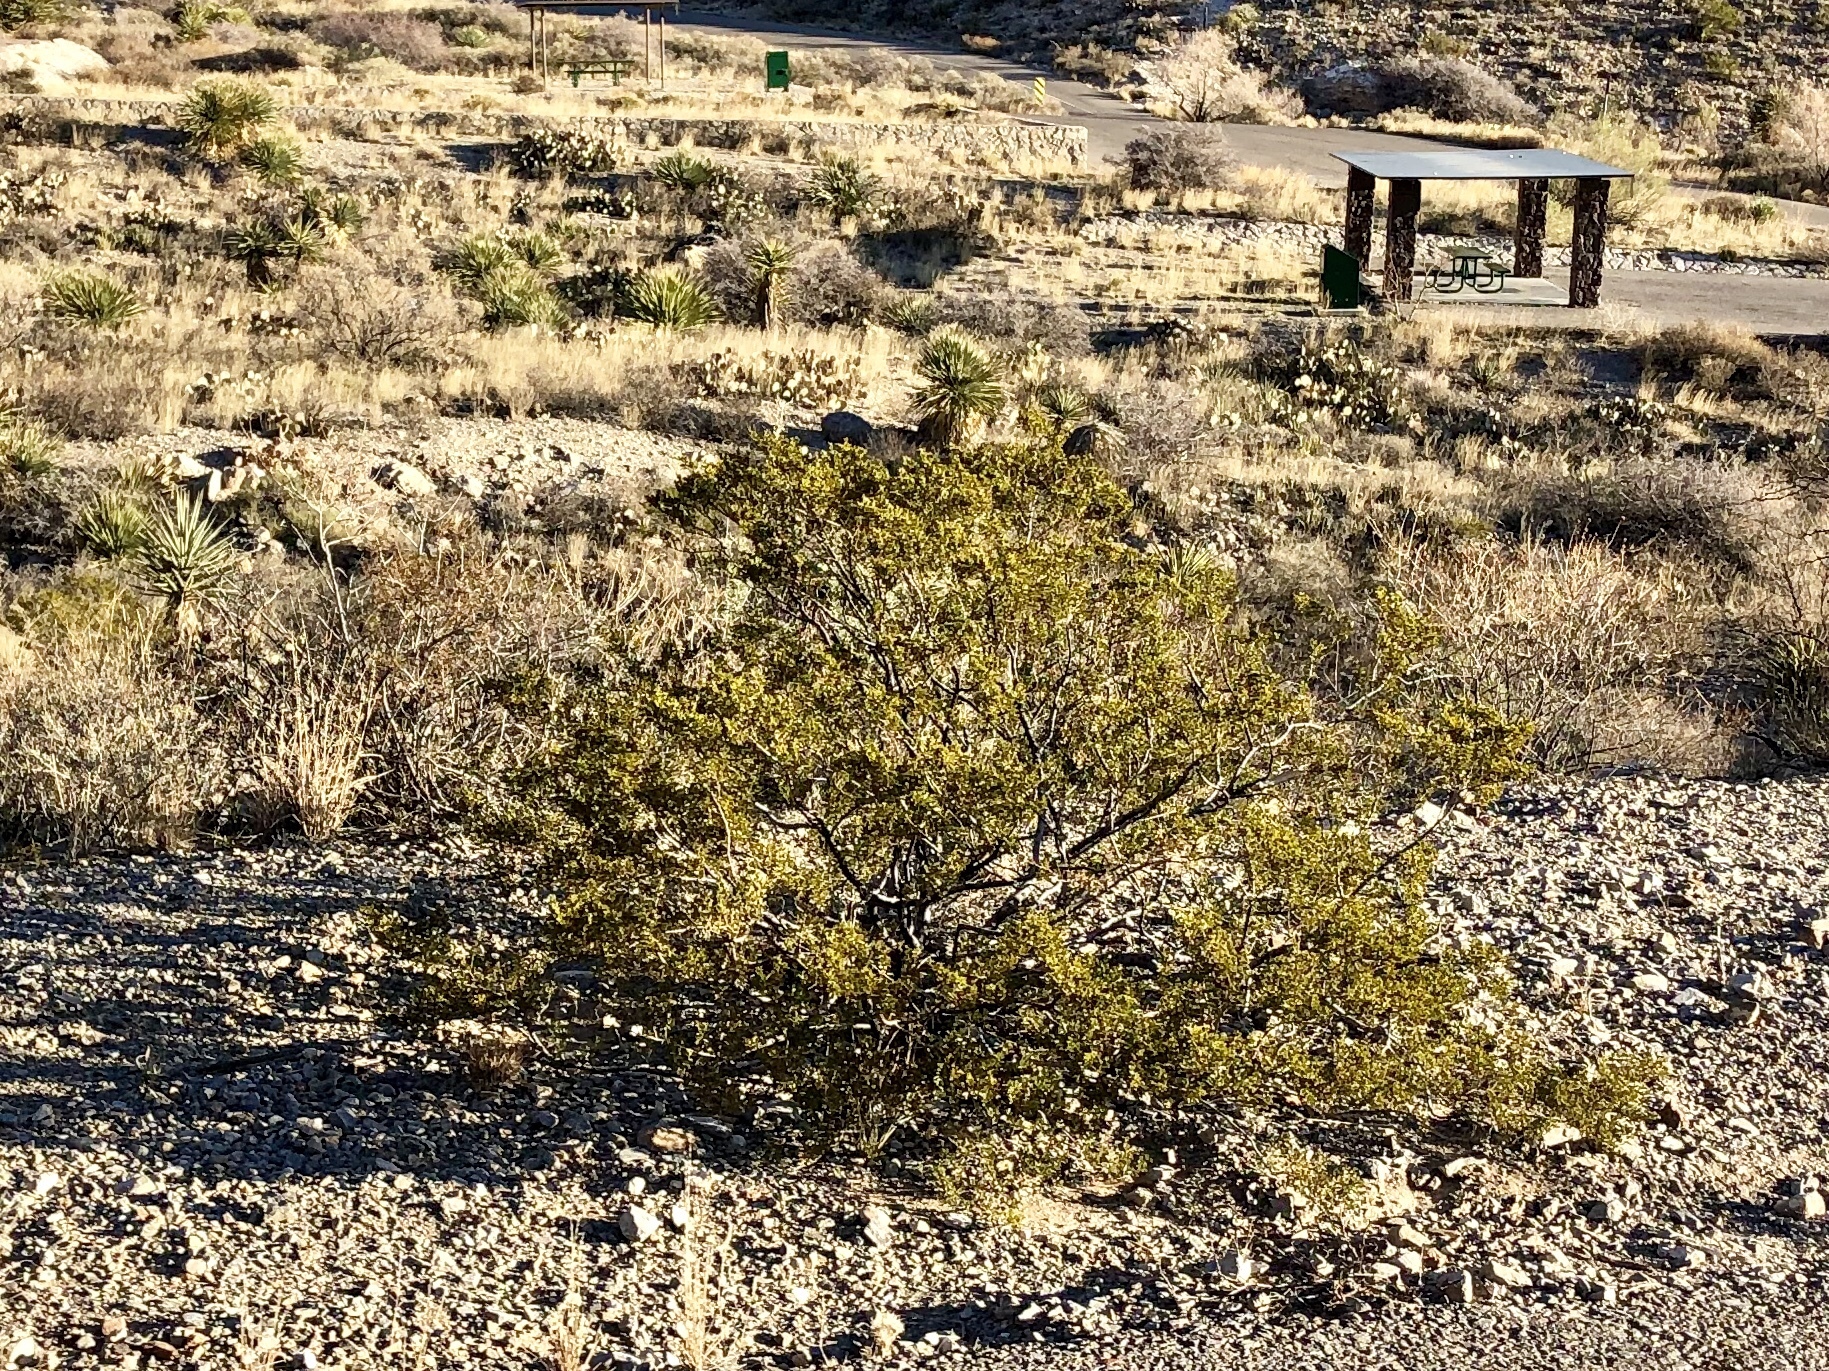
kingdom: Plantae
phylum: Tracheophyta
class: Magnoliopsida
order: Zygophyllales
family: Zygophyllaceae
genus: Larrea
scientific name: Larrea tridentata
